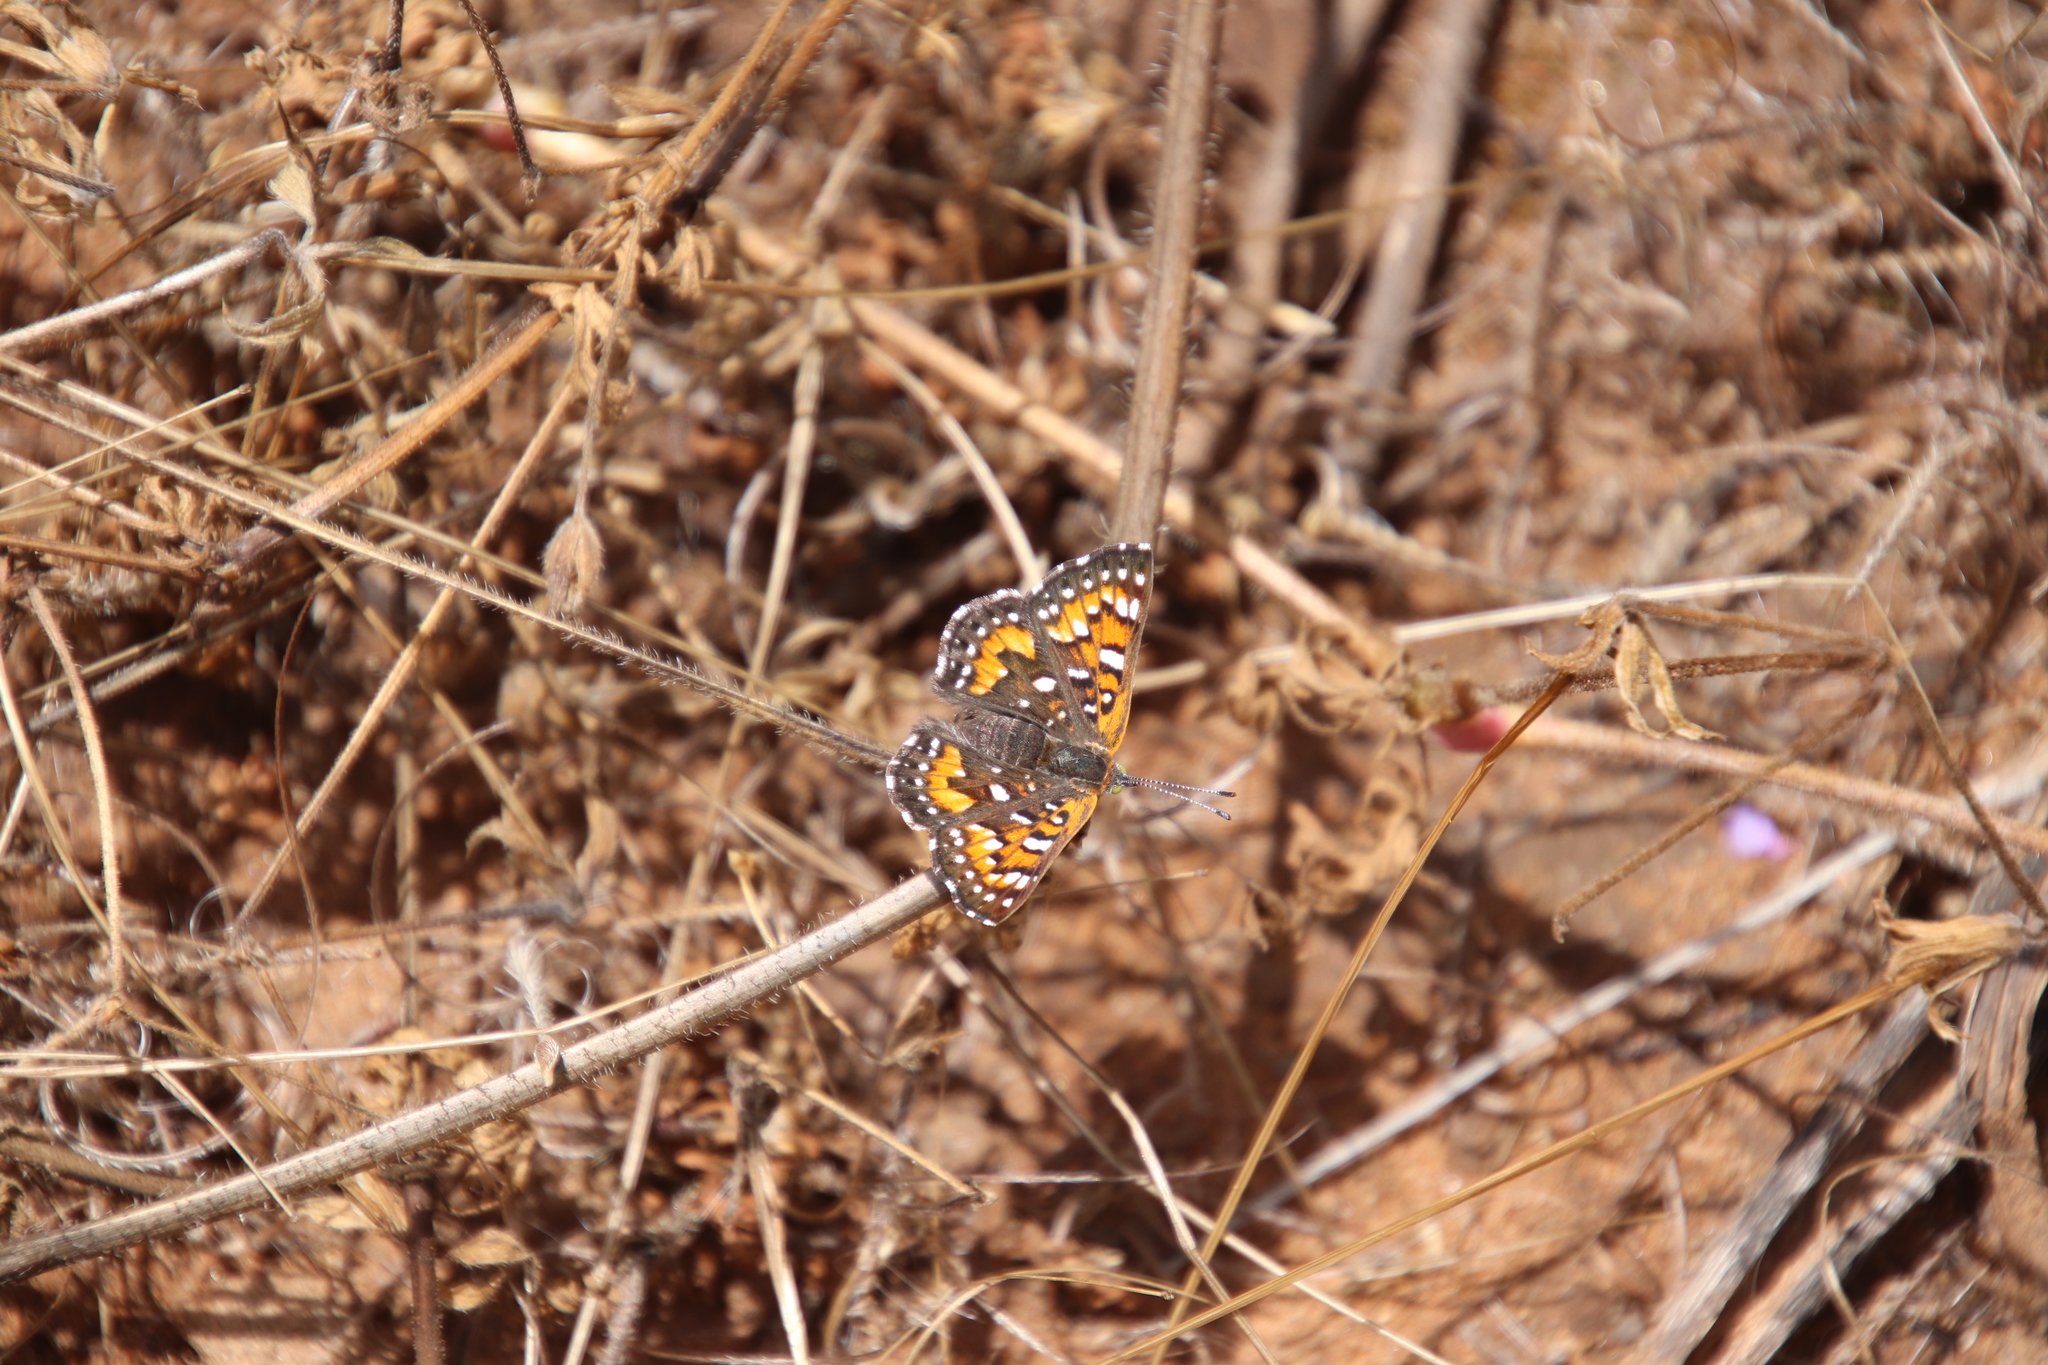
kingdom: Animalia
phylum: Arthropoda
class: Insecta
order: Lepidoptera
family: Riodinidae
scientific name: Riodinidae
